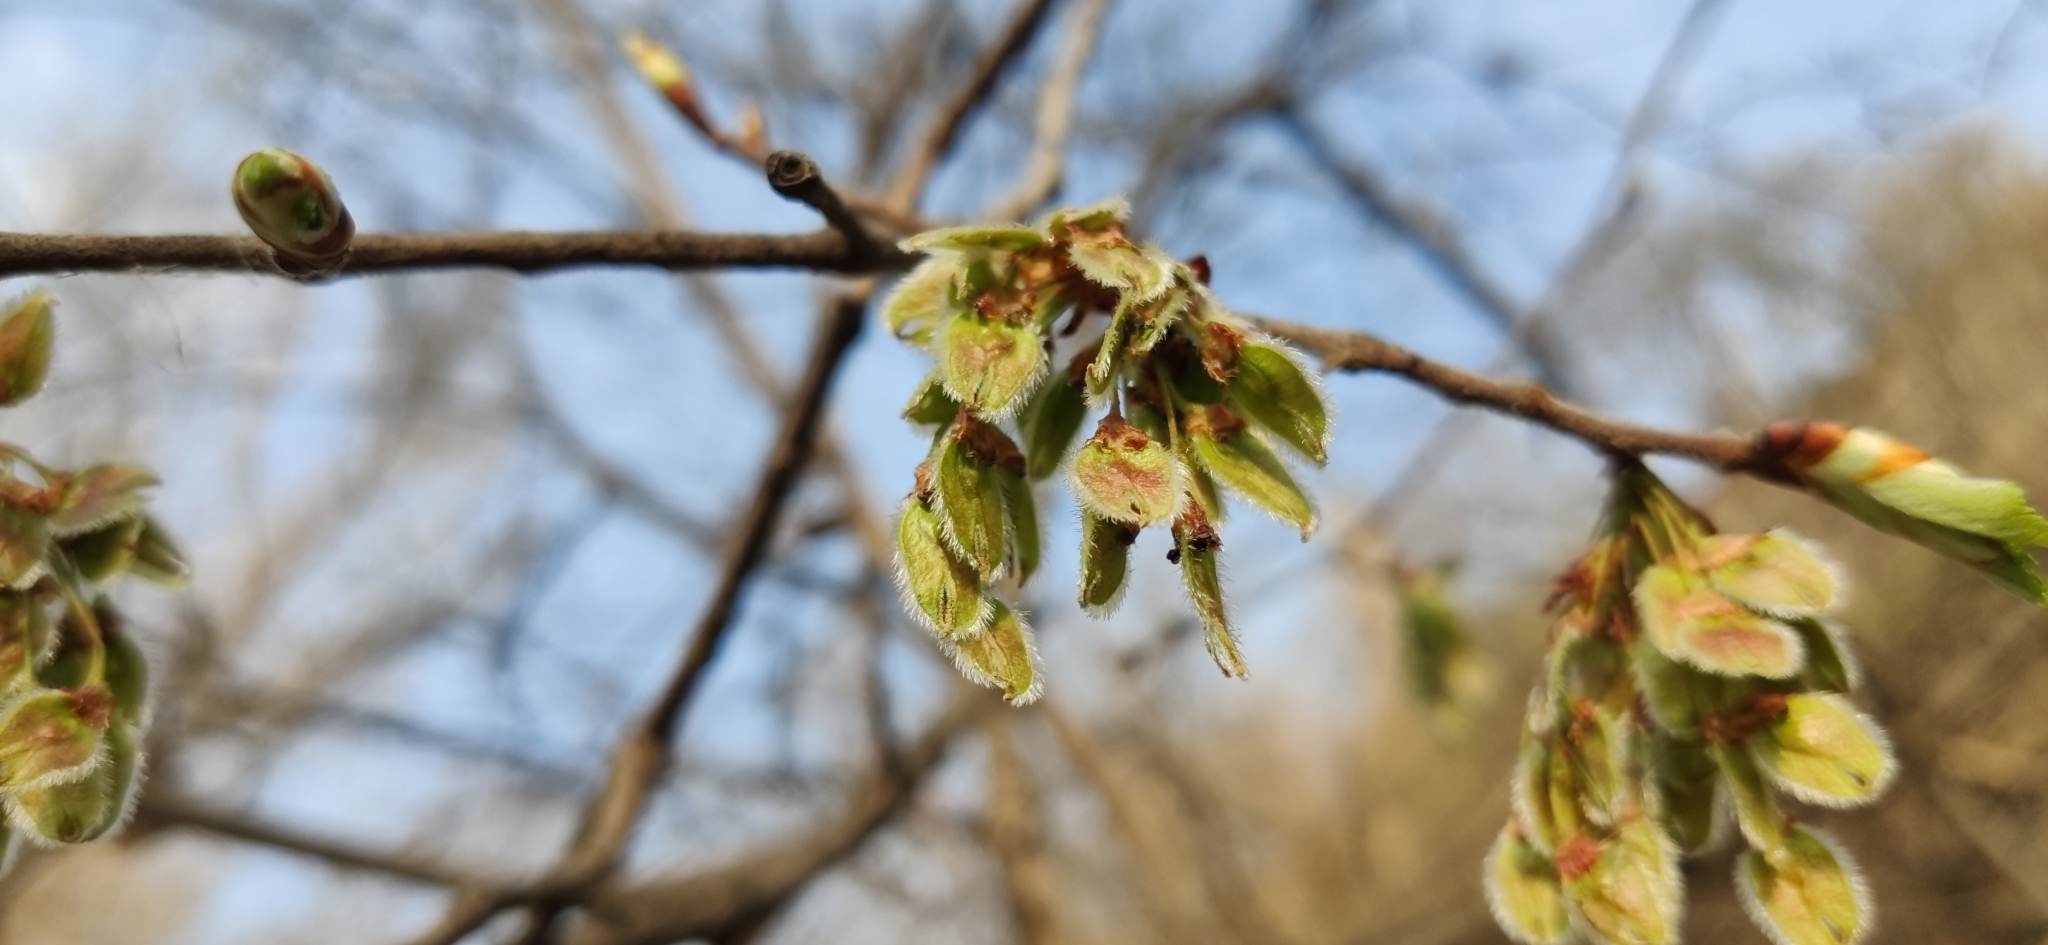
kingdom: Plantae
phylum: Tracheophyta
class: Magnoliopsida
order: Rosales
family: Ulmaceae
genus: Ulmus
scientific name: Ulmus laevis
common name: European white-elm
